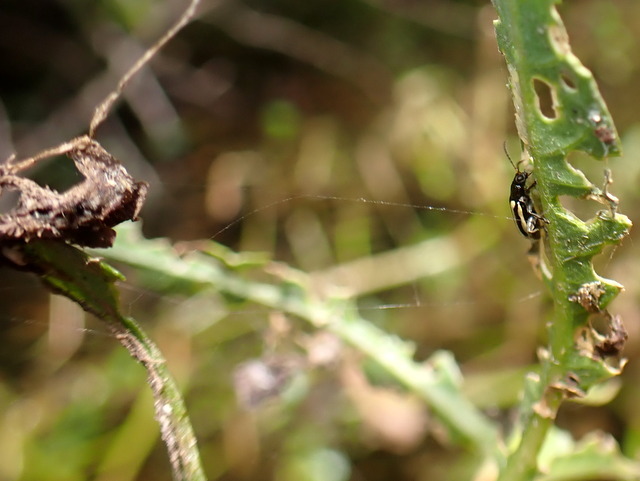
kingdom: Animalia
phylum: Arthropoda
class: Insecta
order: Coleoptera
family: Chrysomelidae
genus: Agasicles
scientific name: Agasicles hygrophila
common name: Alligatorweed flea beetle
